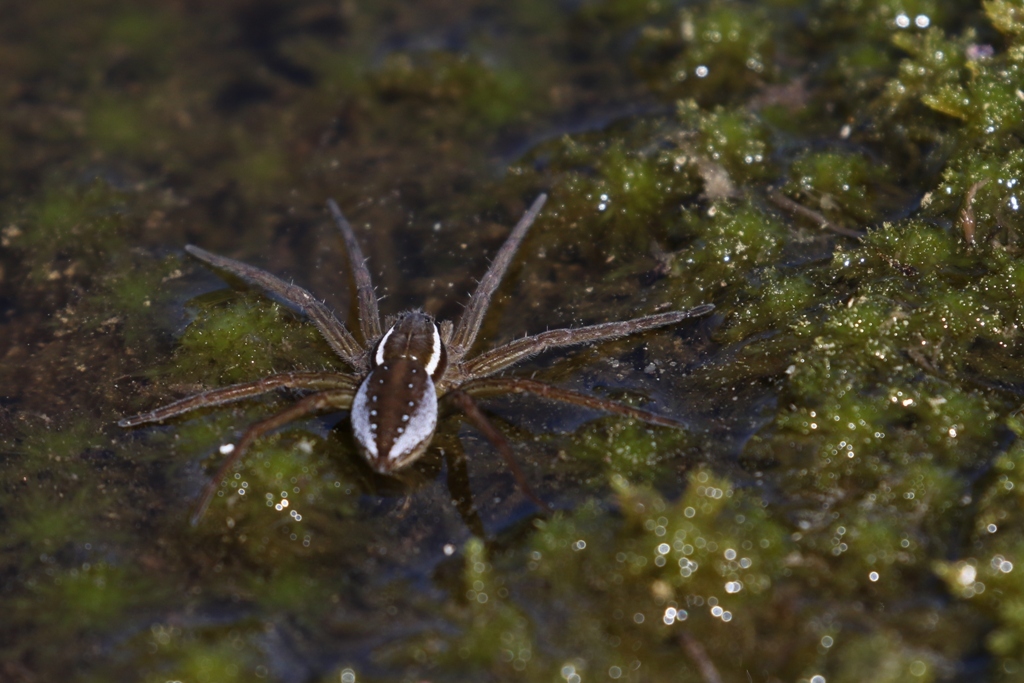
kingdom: Animalia
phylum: Arthropoda
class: Arachnida
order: Araneae
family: Pisauridae
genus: Dolomedes
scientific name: Dolomedes triton
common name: Six-spotted fishing spider
